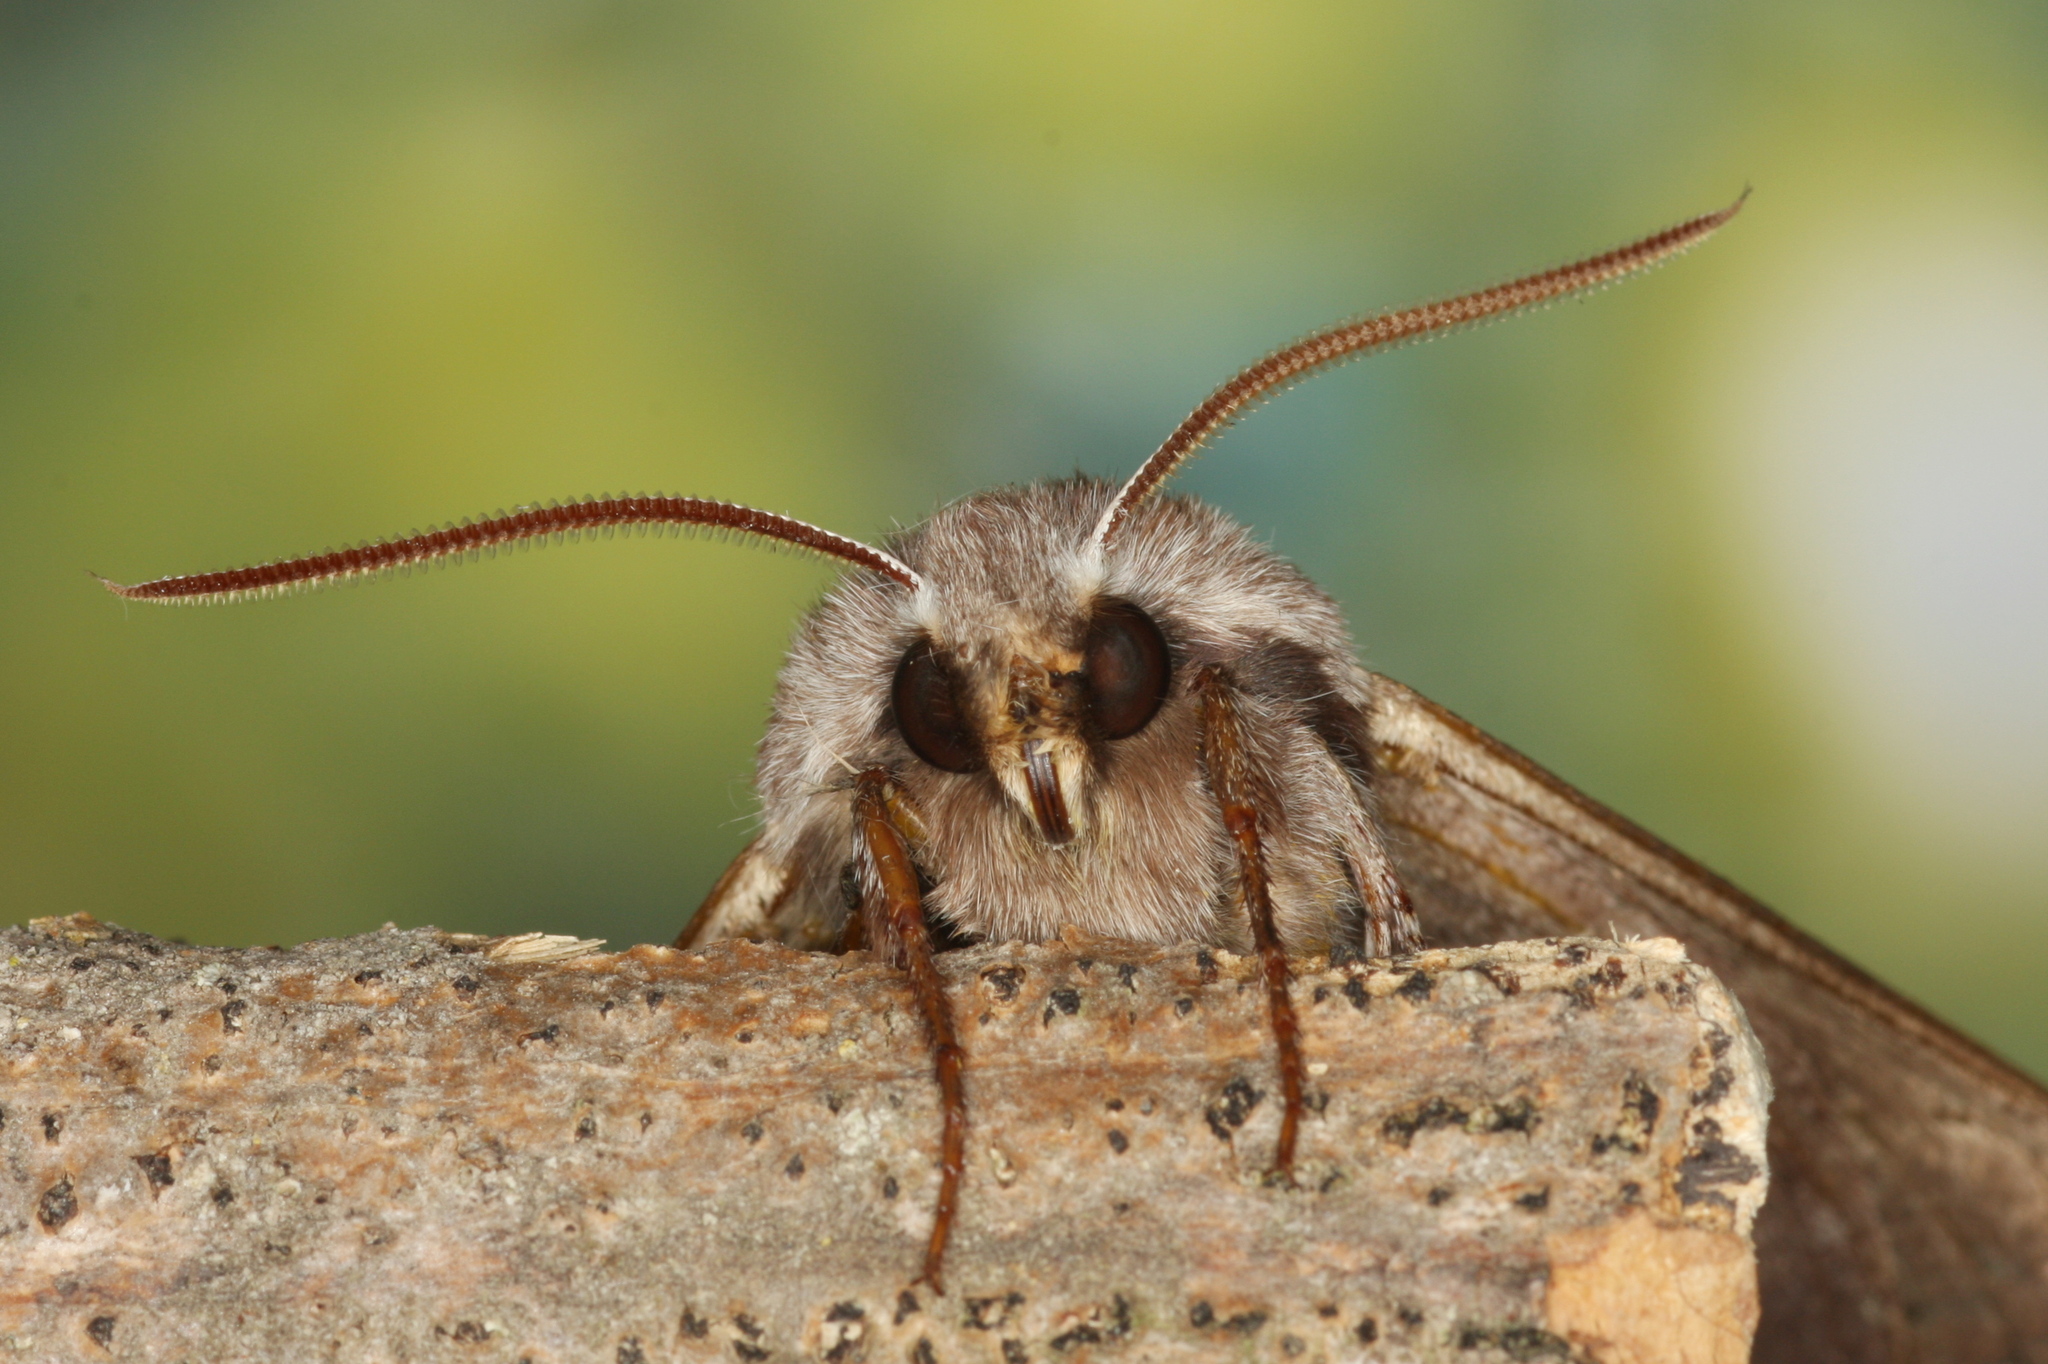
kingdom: Animalia
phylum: Arthropoda
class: Insecta
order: Lepidoptera
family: Sphingidae
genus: Sphinx
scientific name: Sphinx pinastri
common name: Pine hawk-moth
